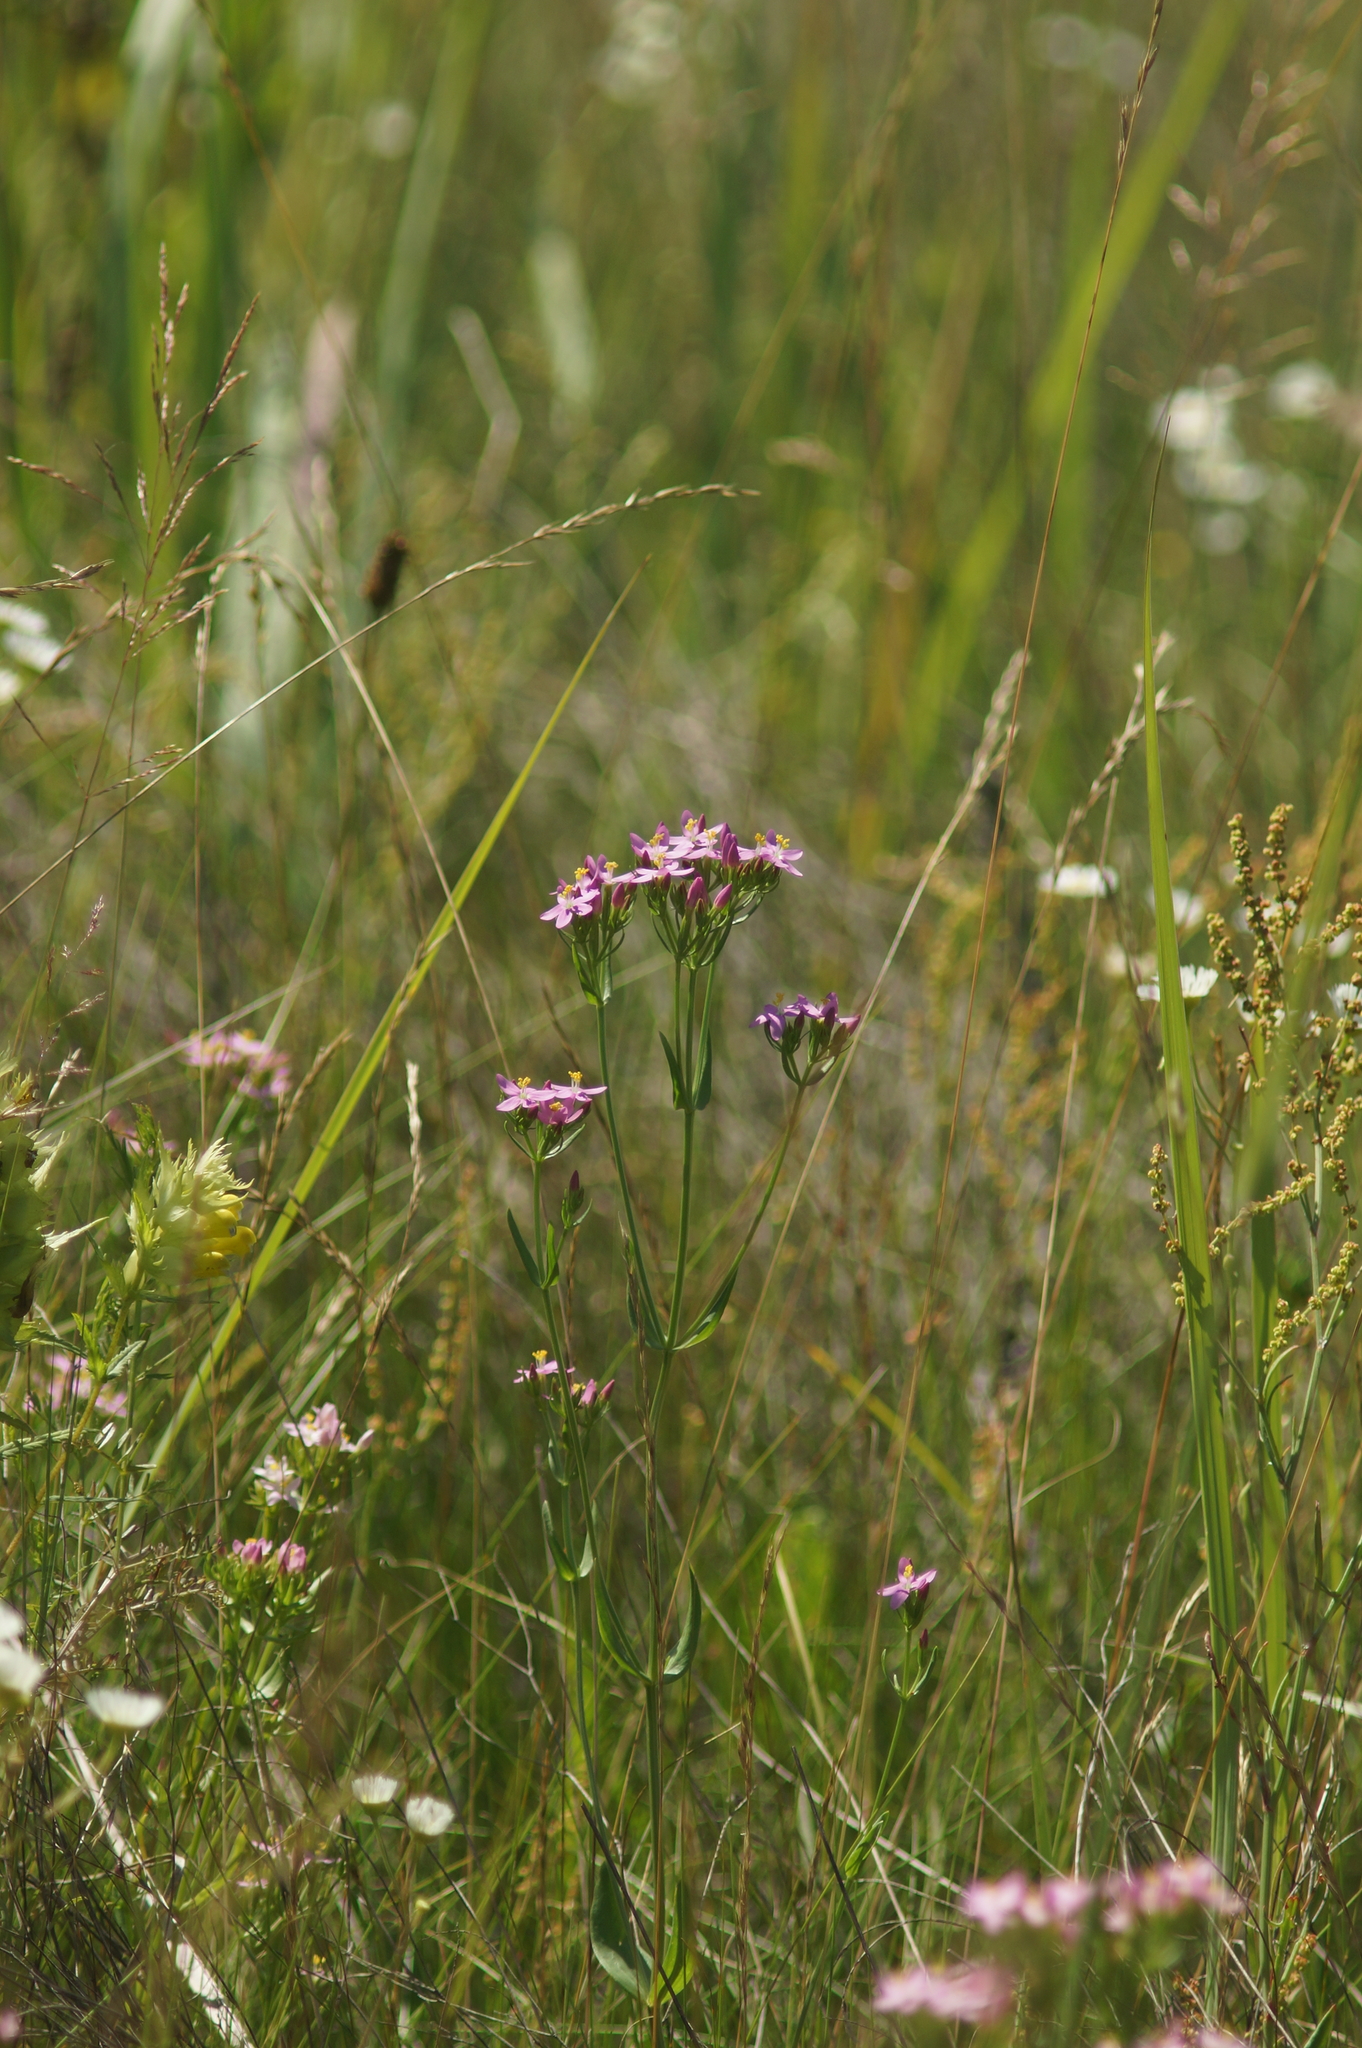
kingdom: Plantae
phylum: Tracheophyta
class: Magnoliopsida
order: Gentianales
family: Gentianaceae
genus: Centaurium
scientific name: Centaurium erythraea
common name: Common centaury
